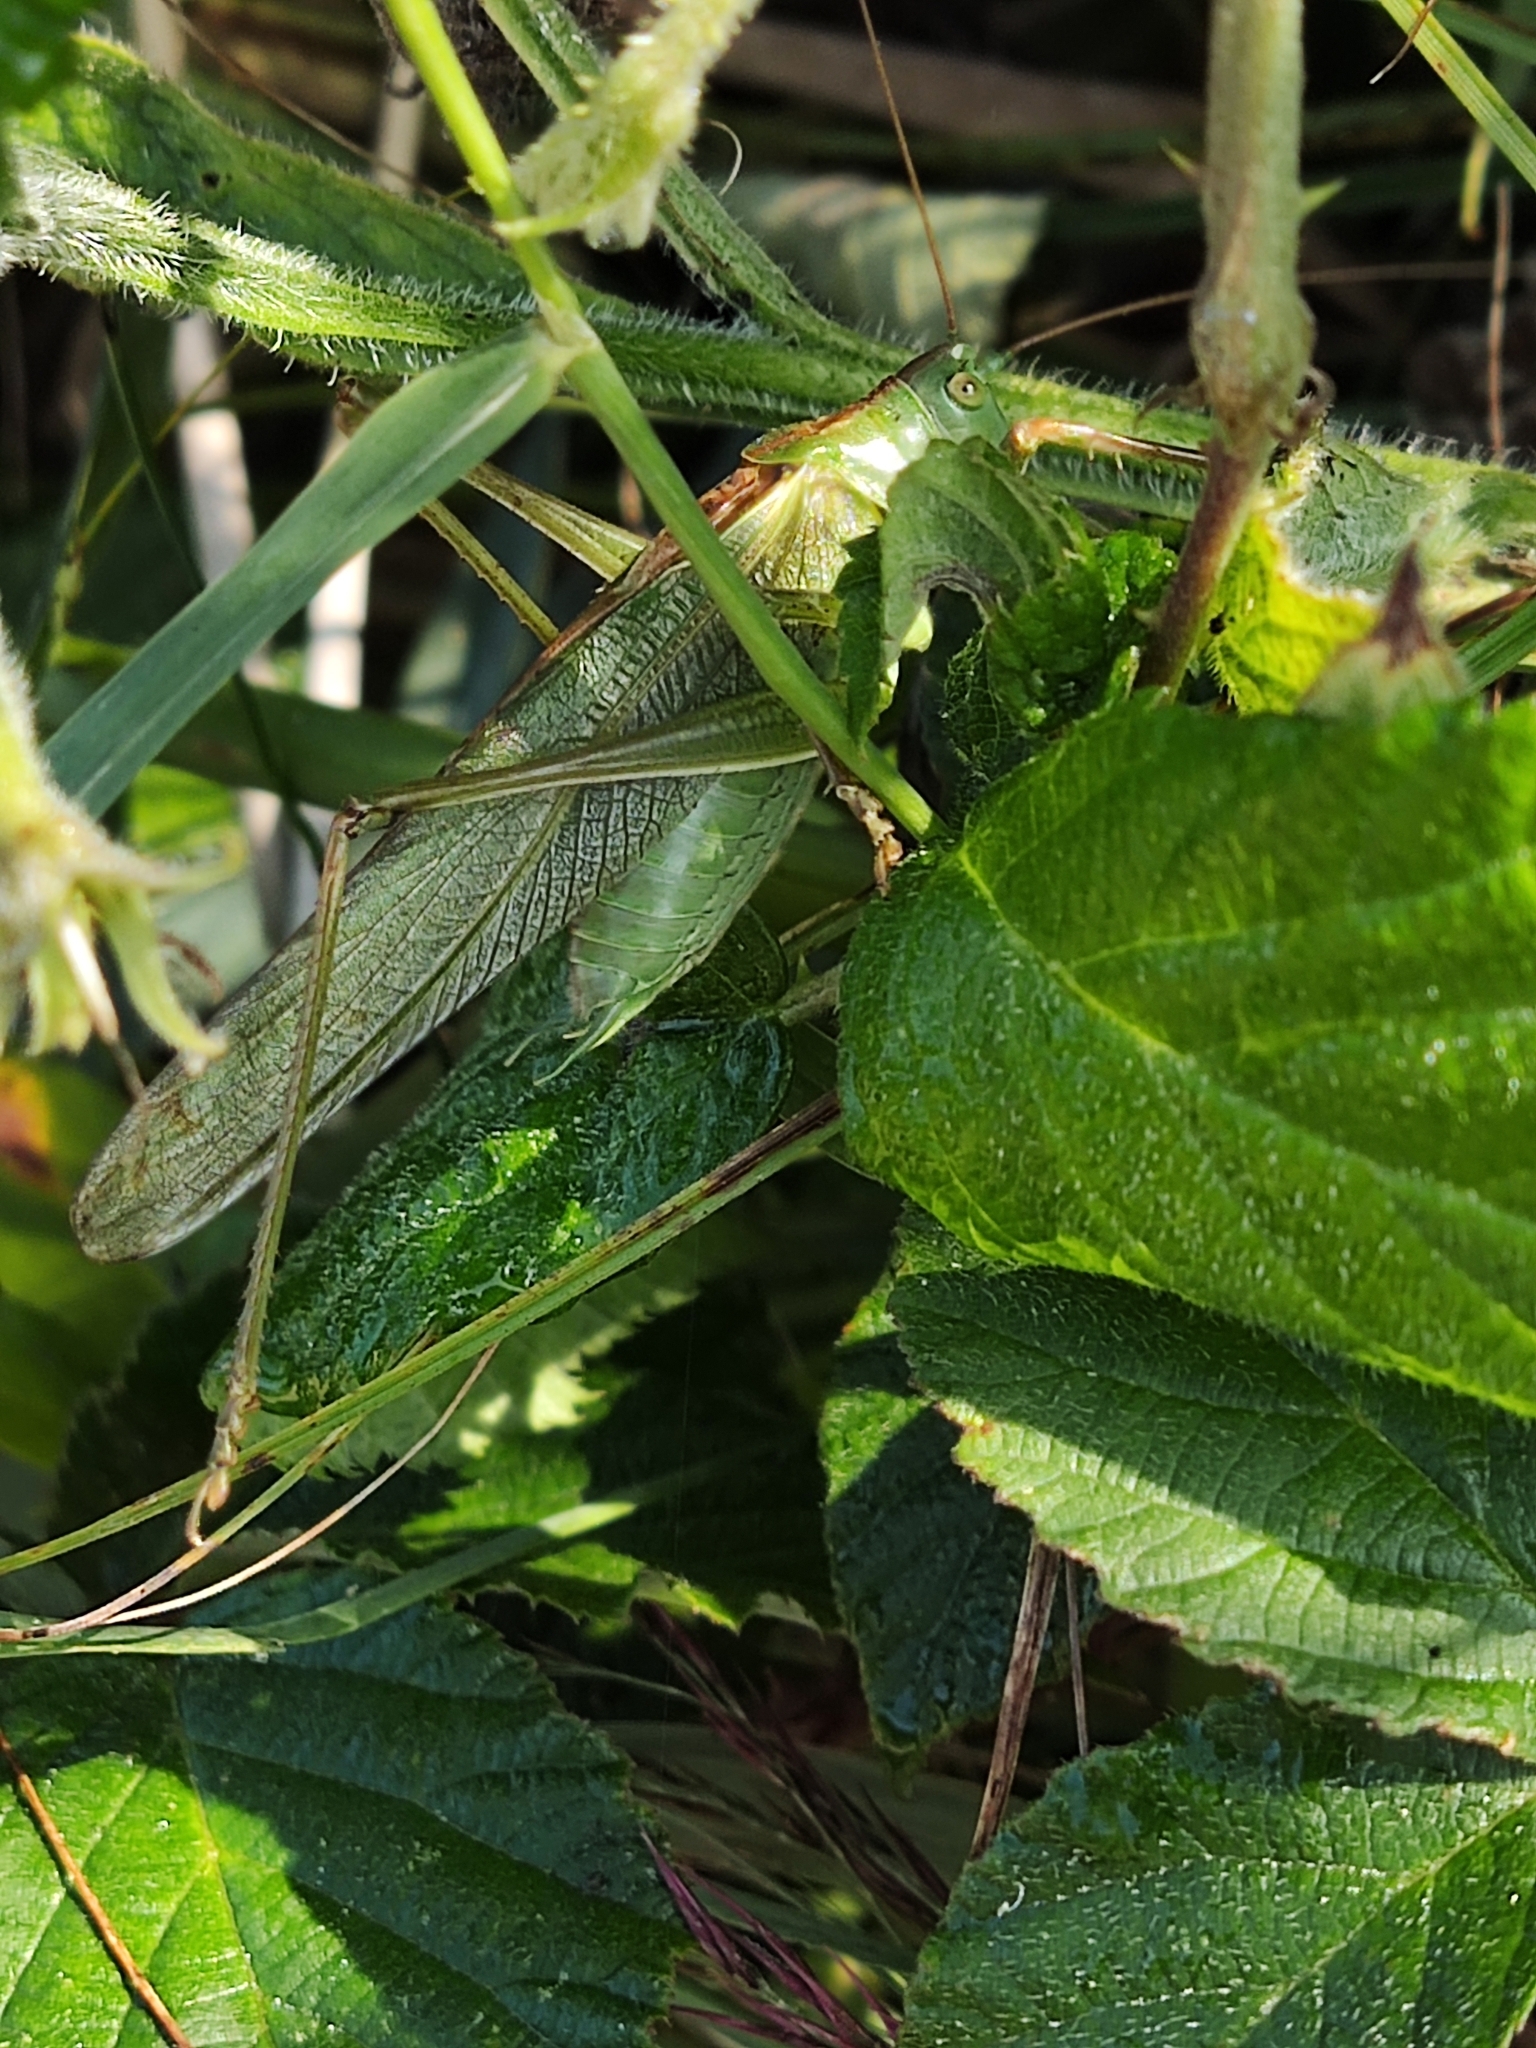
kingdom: Animalia
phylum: Arthropoda
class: Insecta
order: Orthoptera
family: Tettigoniidae
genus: Tettigonia
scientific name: Tettigonia viridissima
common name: Great green bush-cricket
